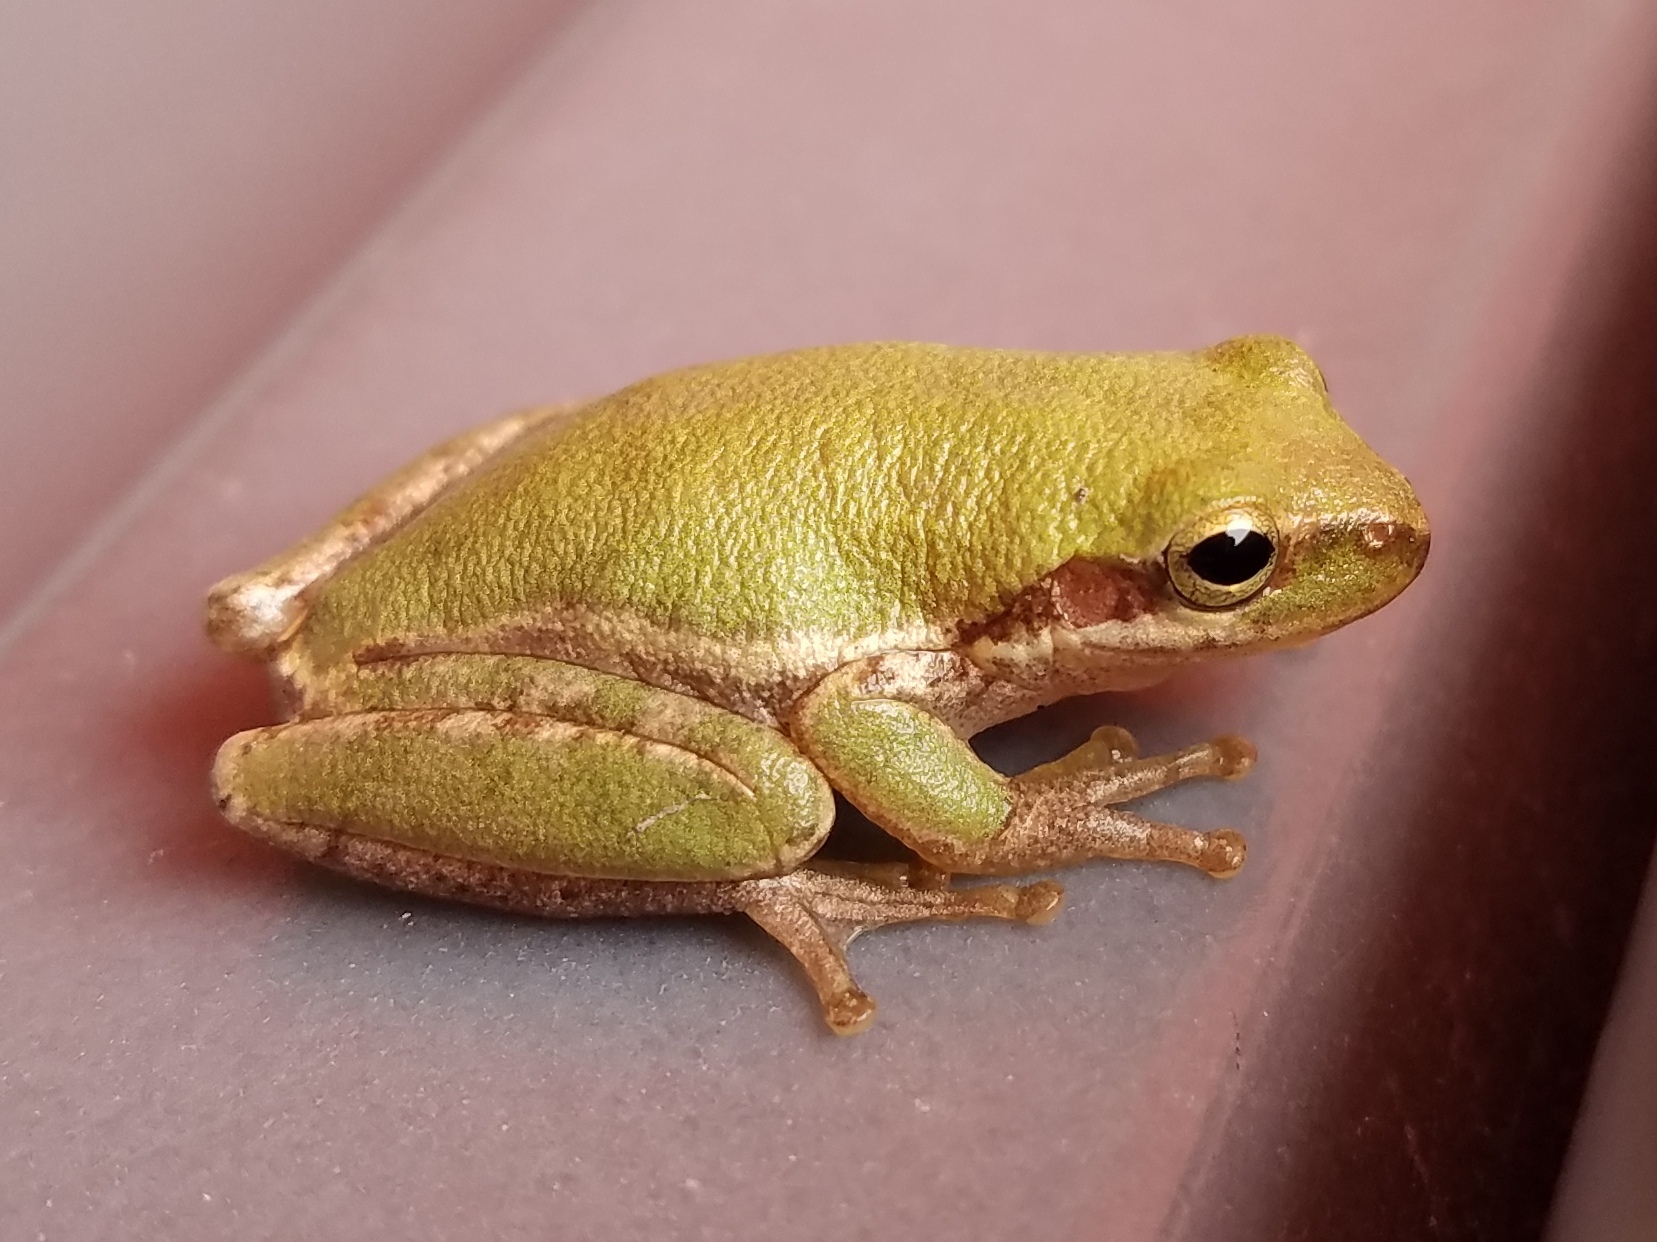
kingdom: Animalia
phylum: Chordata
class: Amphibia
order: Anura
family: Hylidae
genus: Dryophytes
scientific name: Dryophytes squirellus
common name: Squirrel treefrog
